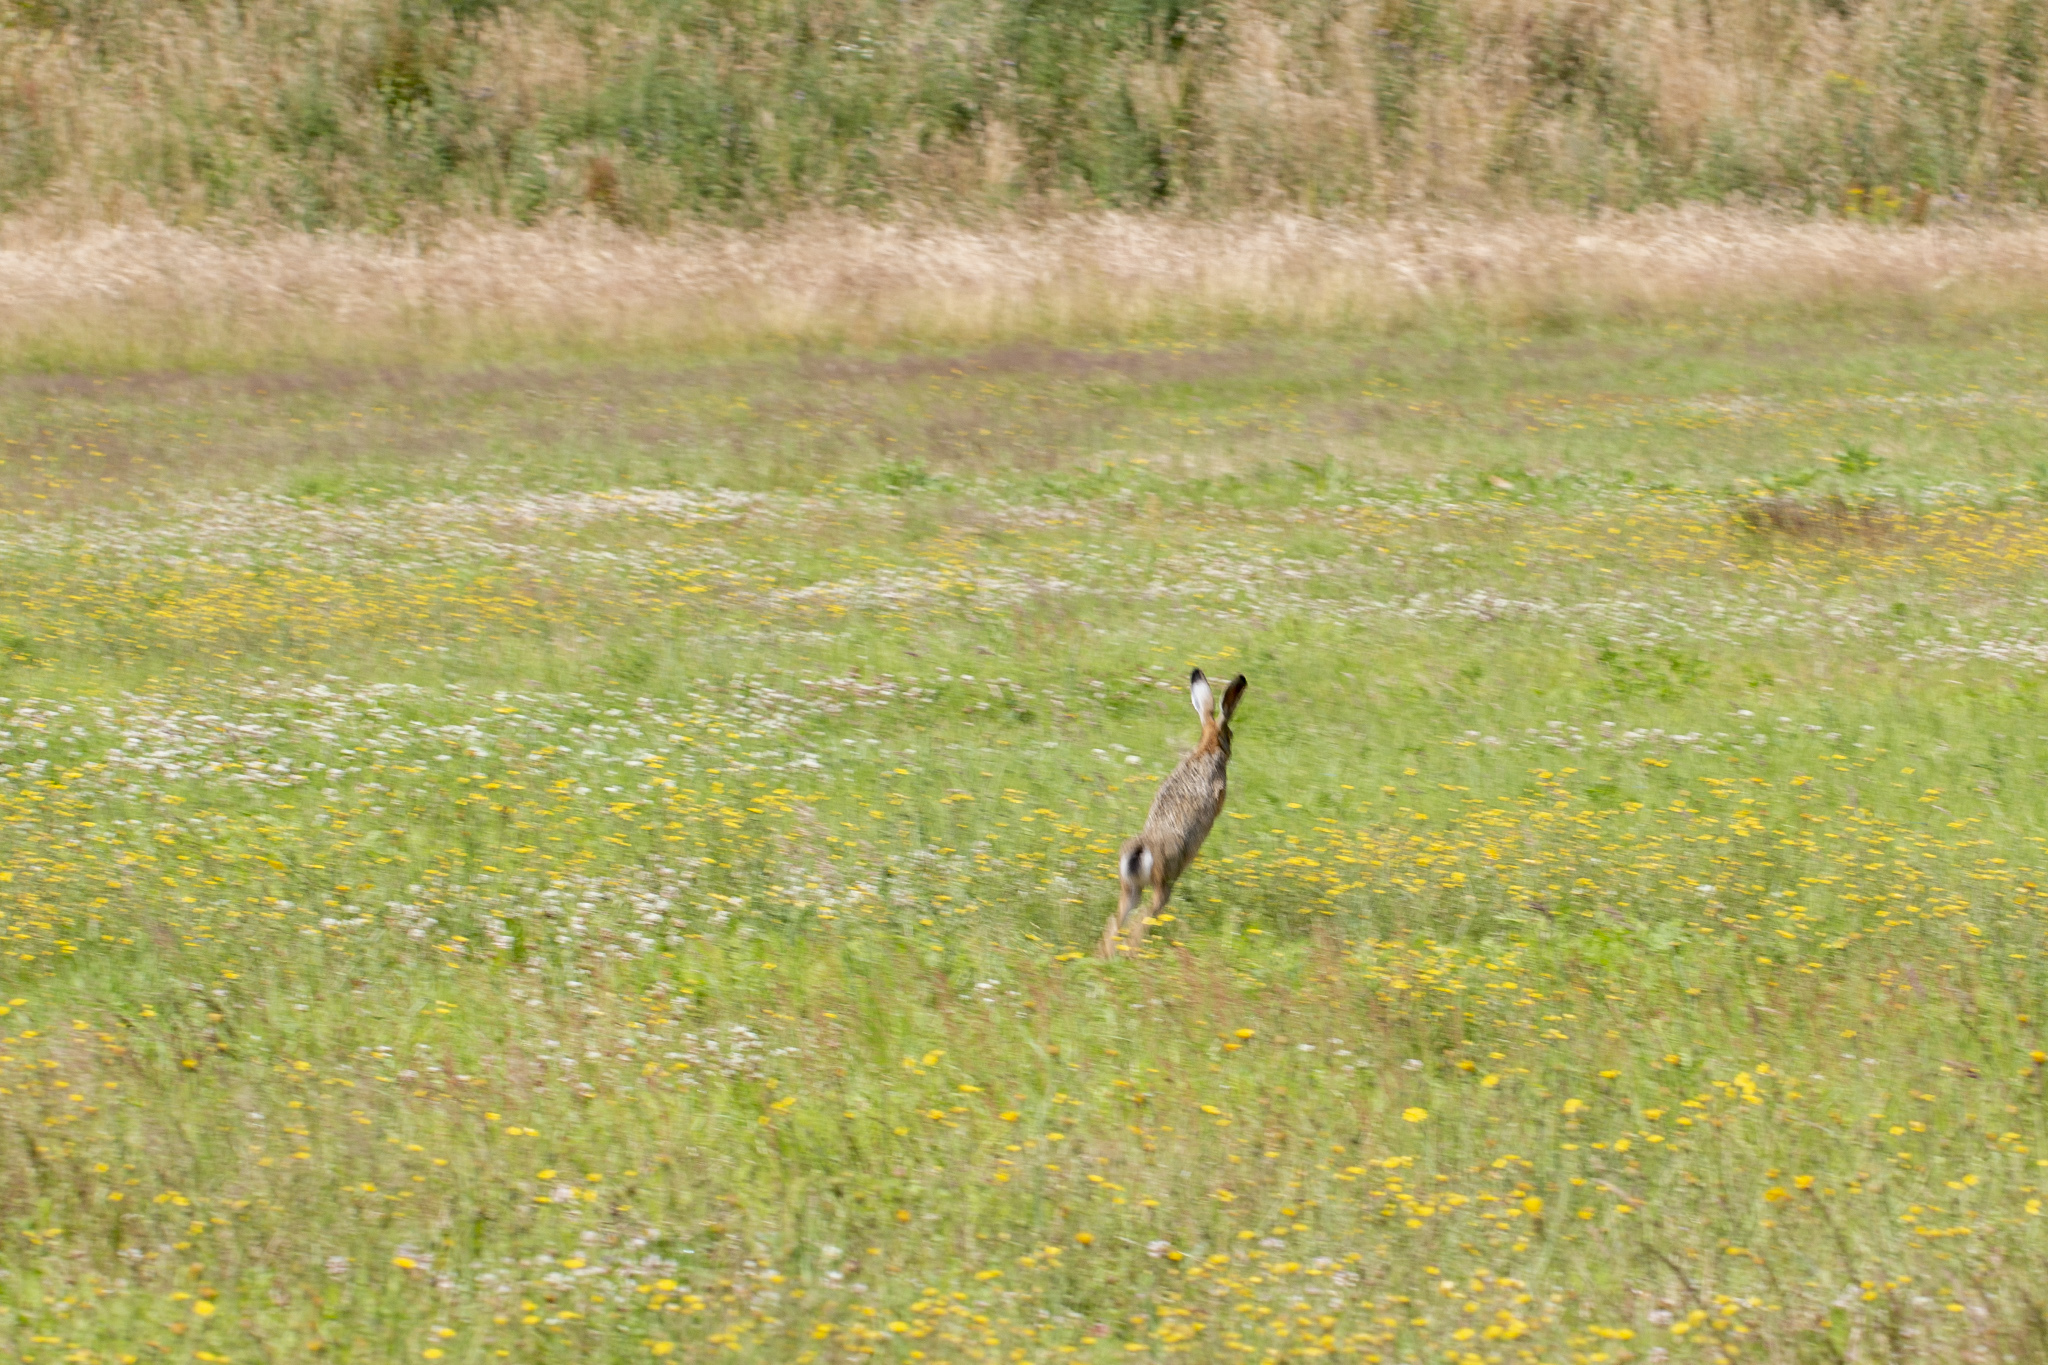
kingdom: Animalia
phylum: Chordata
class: Mammalia
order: Lagomorpha
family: Leporidae
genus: Lepus
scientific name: Lepus europaeus
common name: European hare
